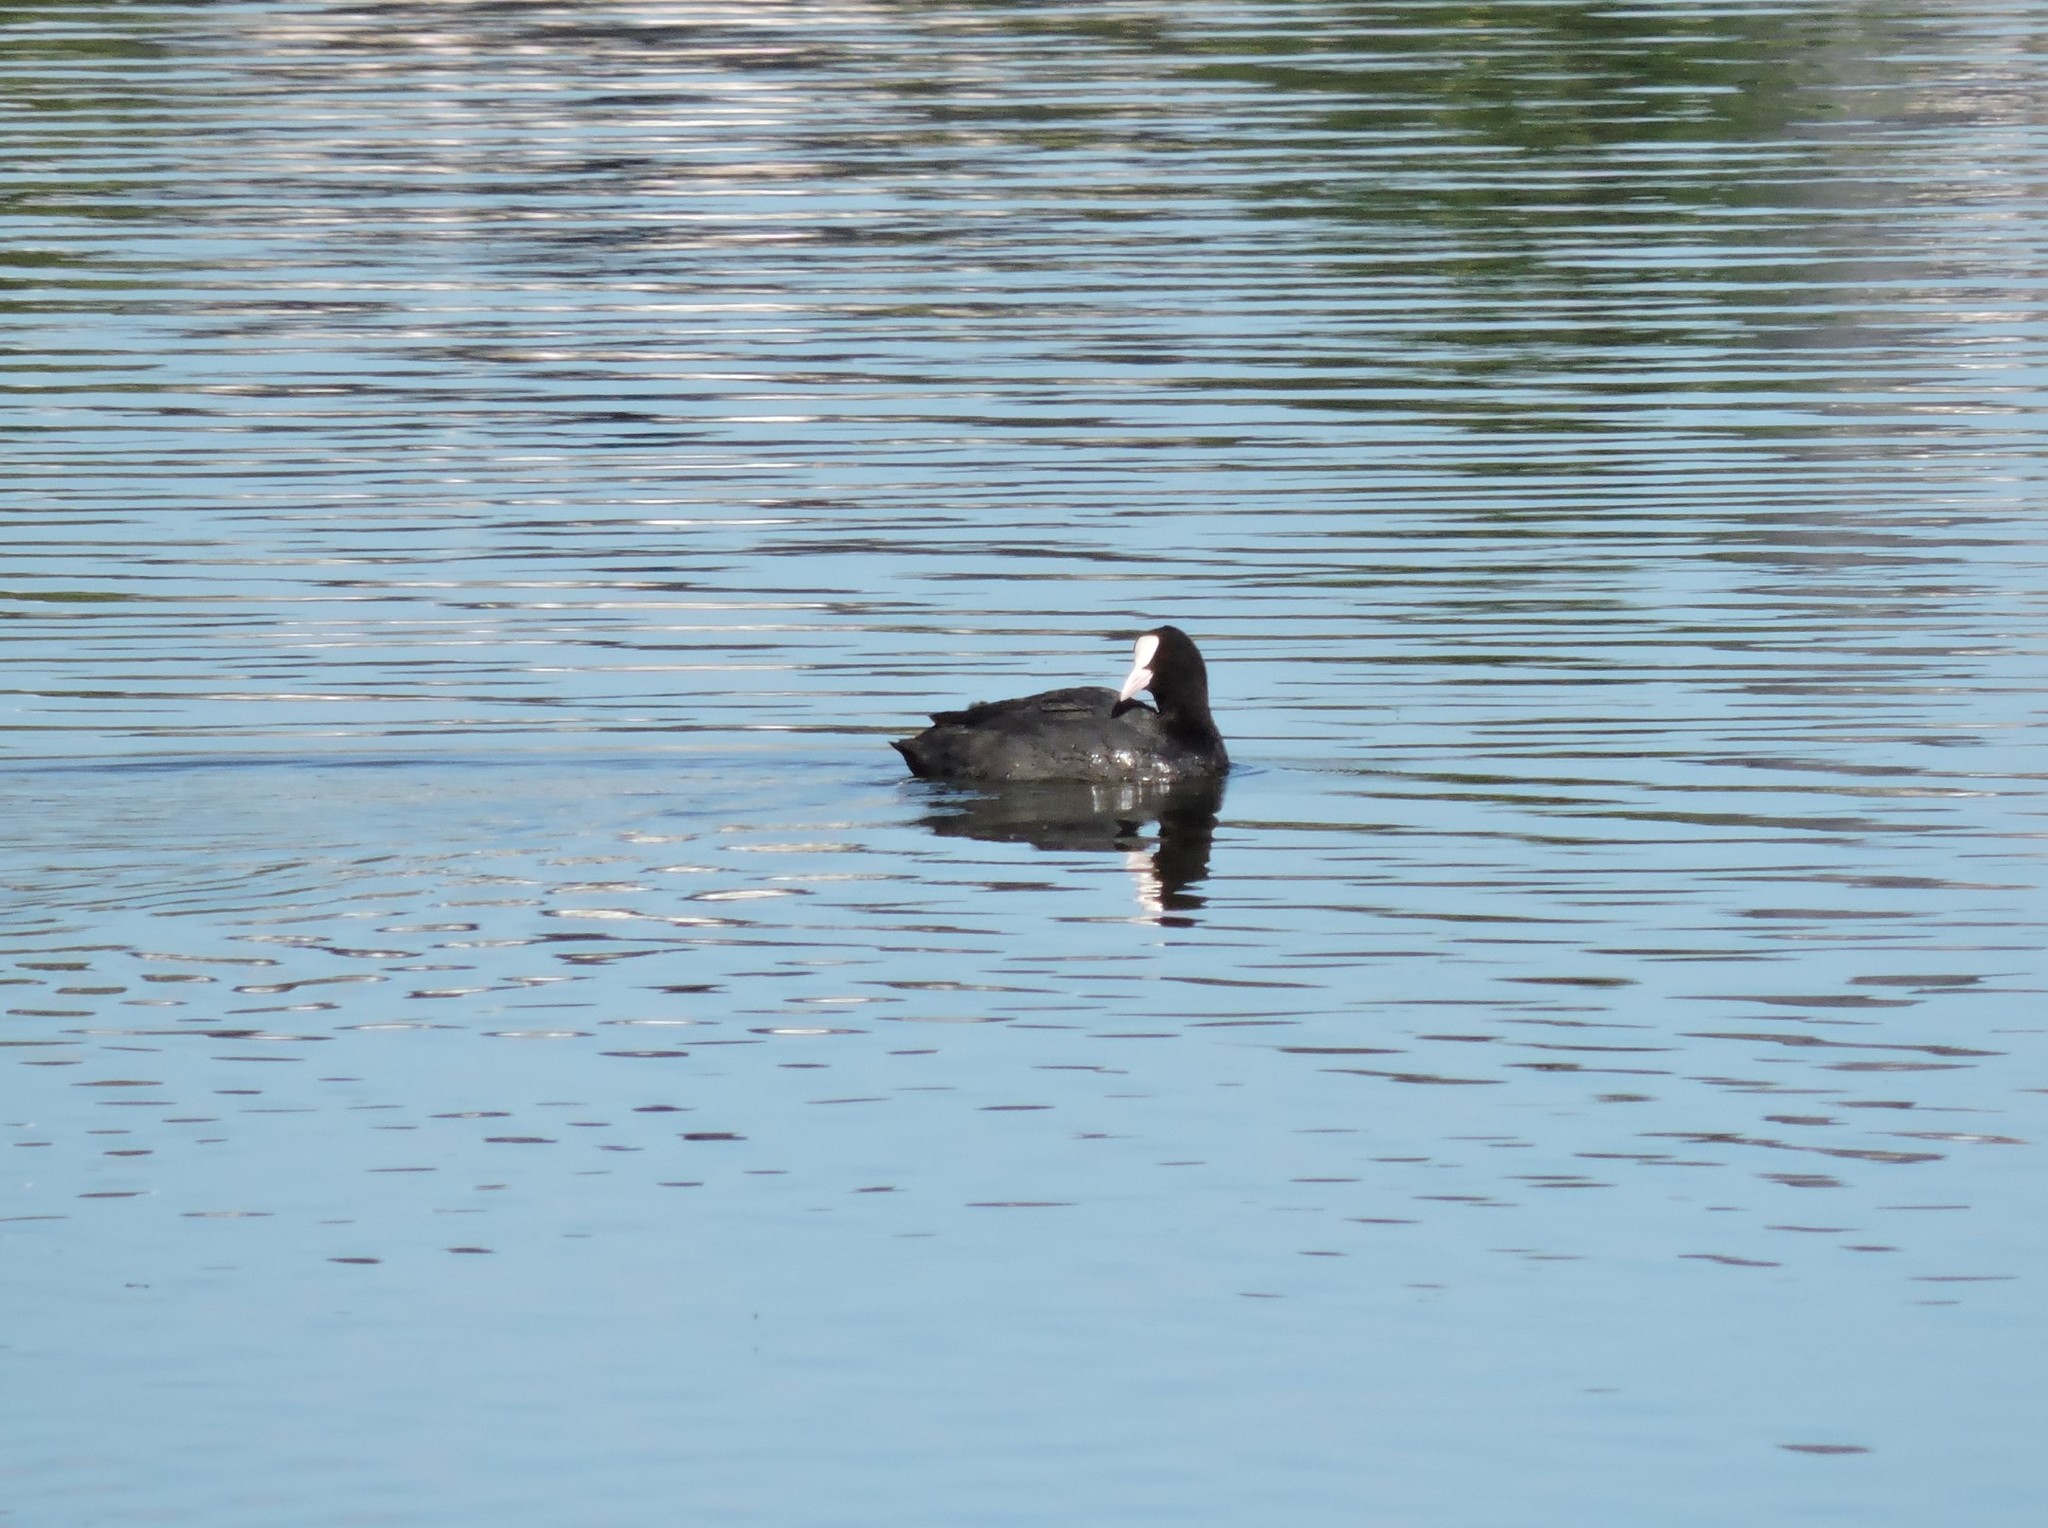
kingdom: Animalia
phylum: Chordata
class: Aves
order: Gruiformes
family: Rallidae
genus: Fulica
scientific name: Fulica atra
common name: Eurasian coot
